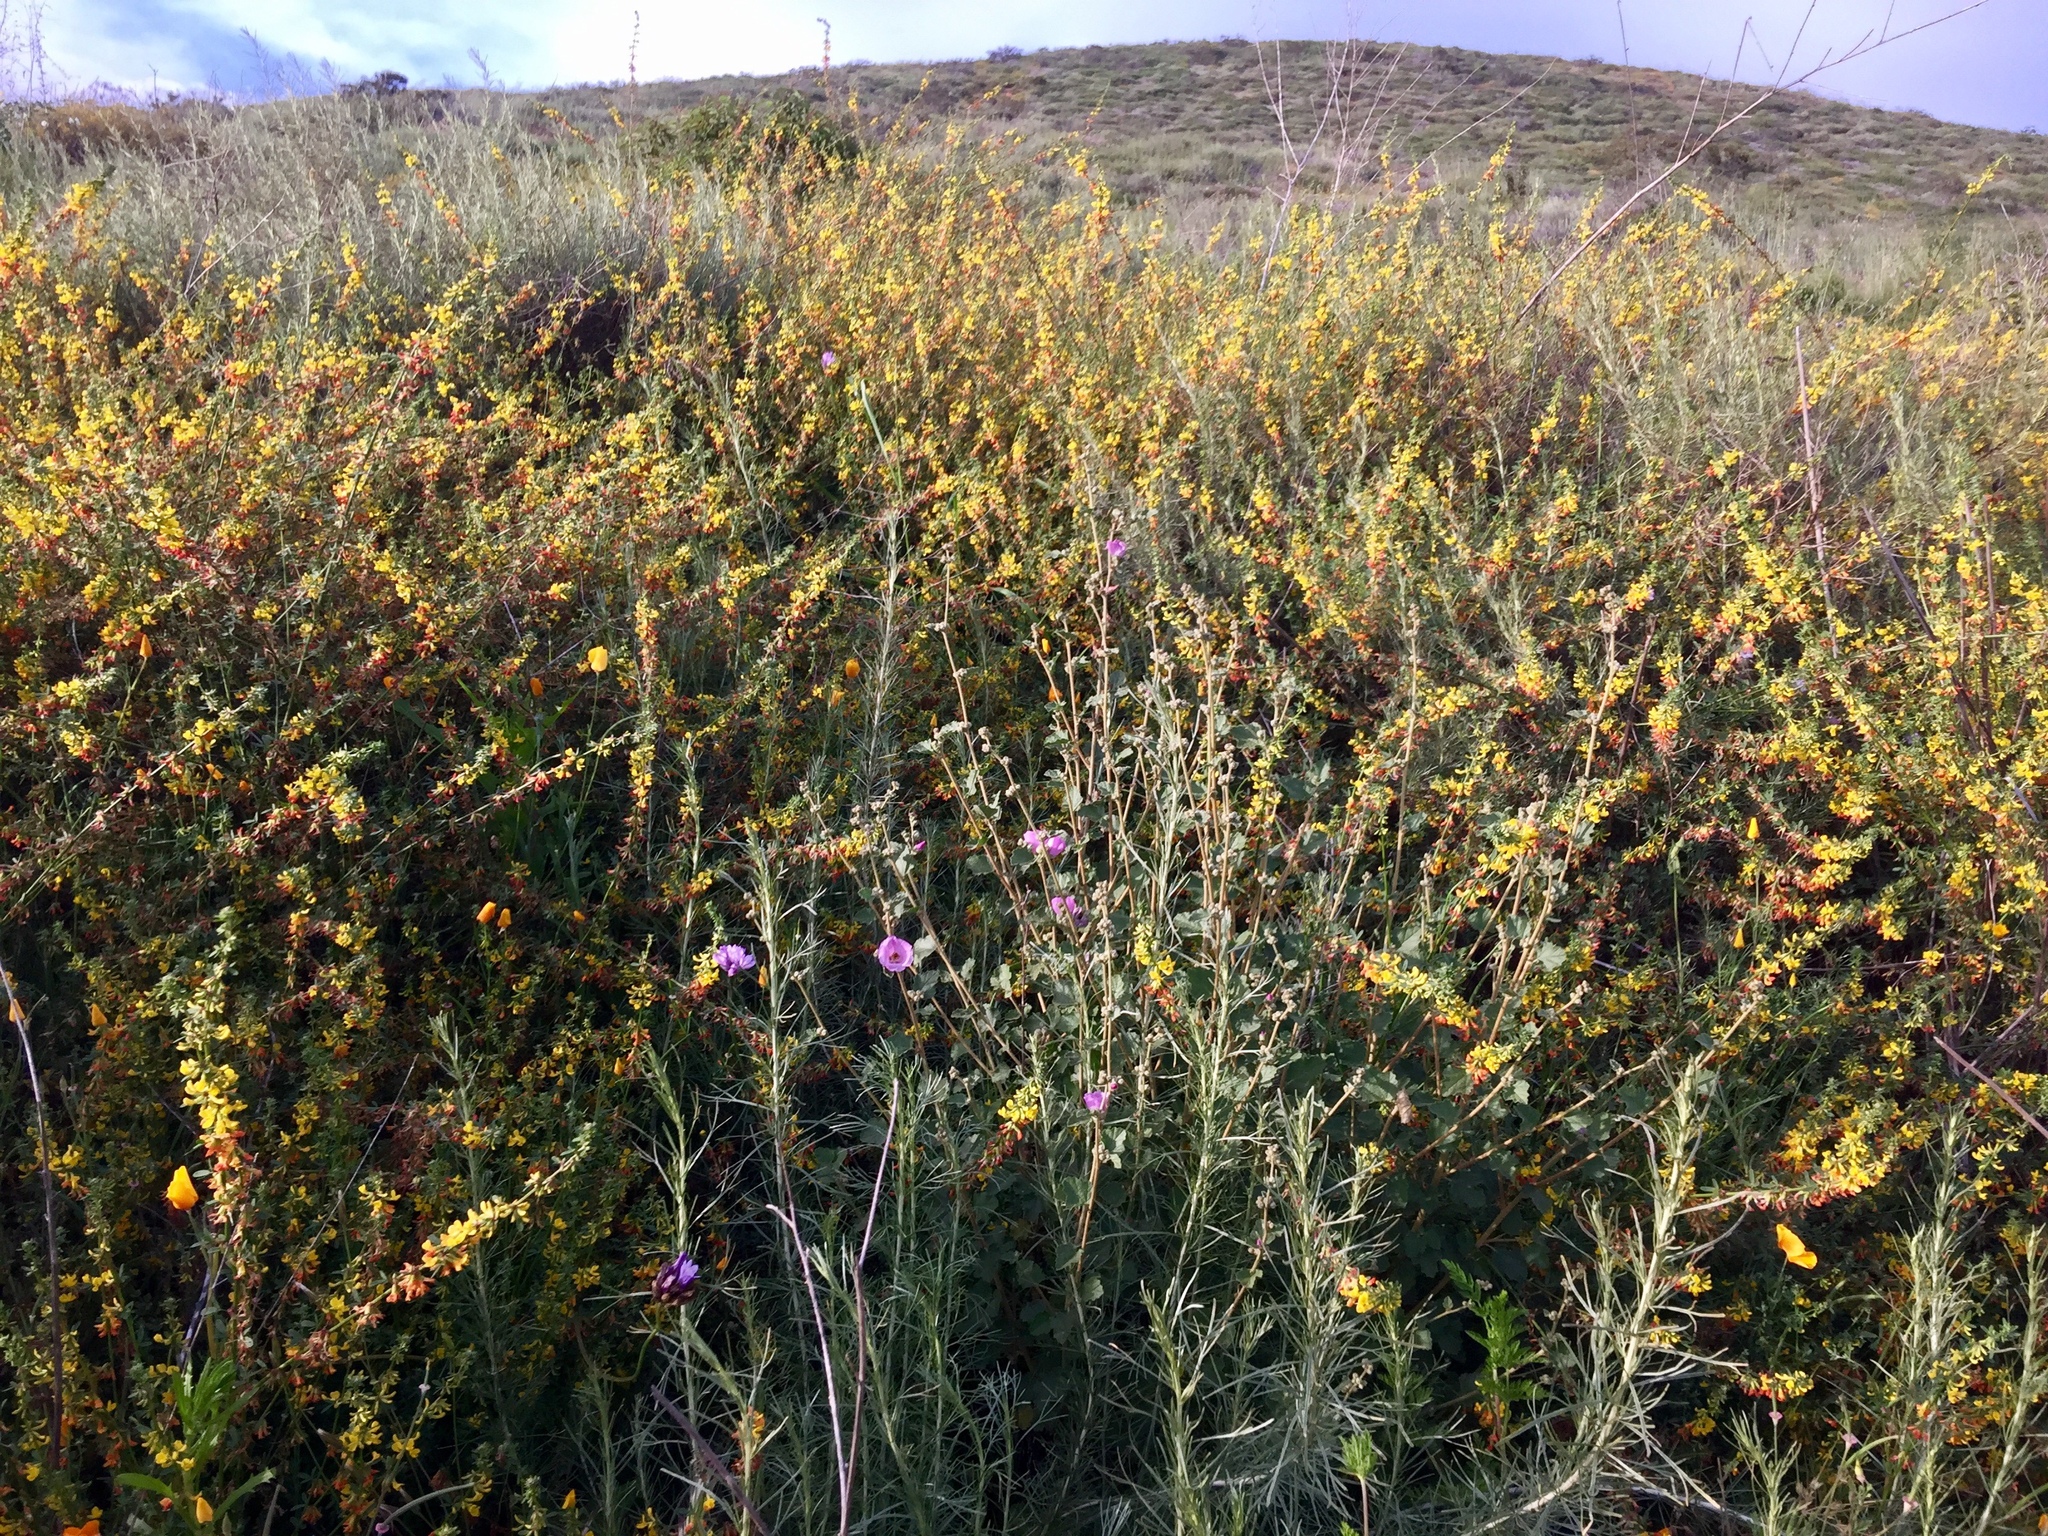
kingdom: Plantae
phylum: Tracheophyta
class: Magnoliopsida
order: Malvales
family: Malvaceae
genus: Malacothamnus
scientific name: Malacothamnus fasciculatus
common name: Sant cruz island bush-mallow
